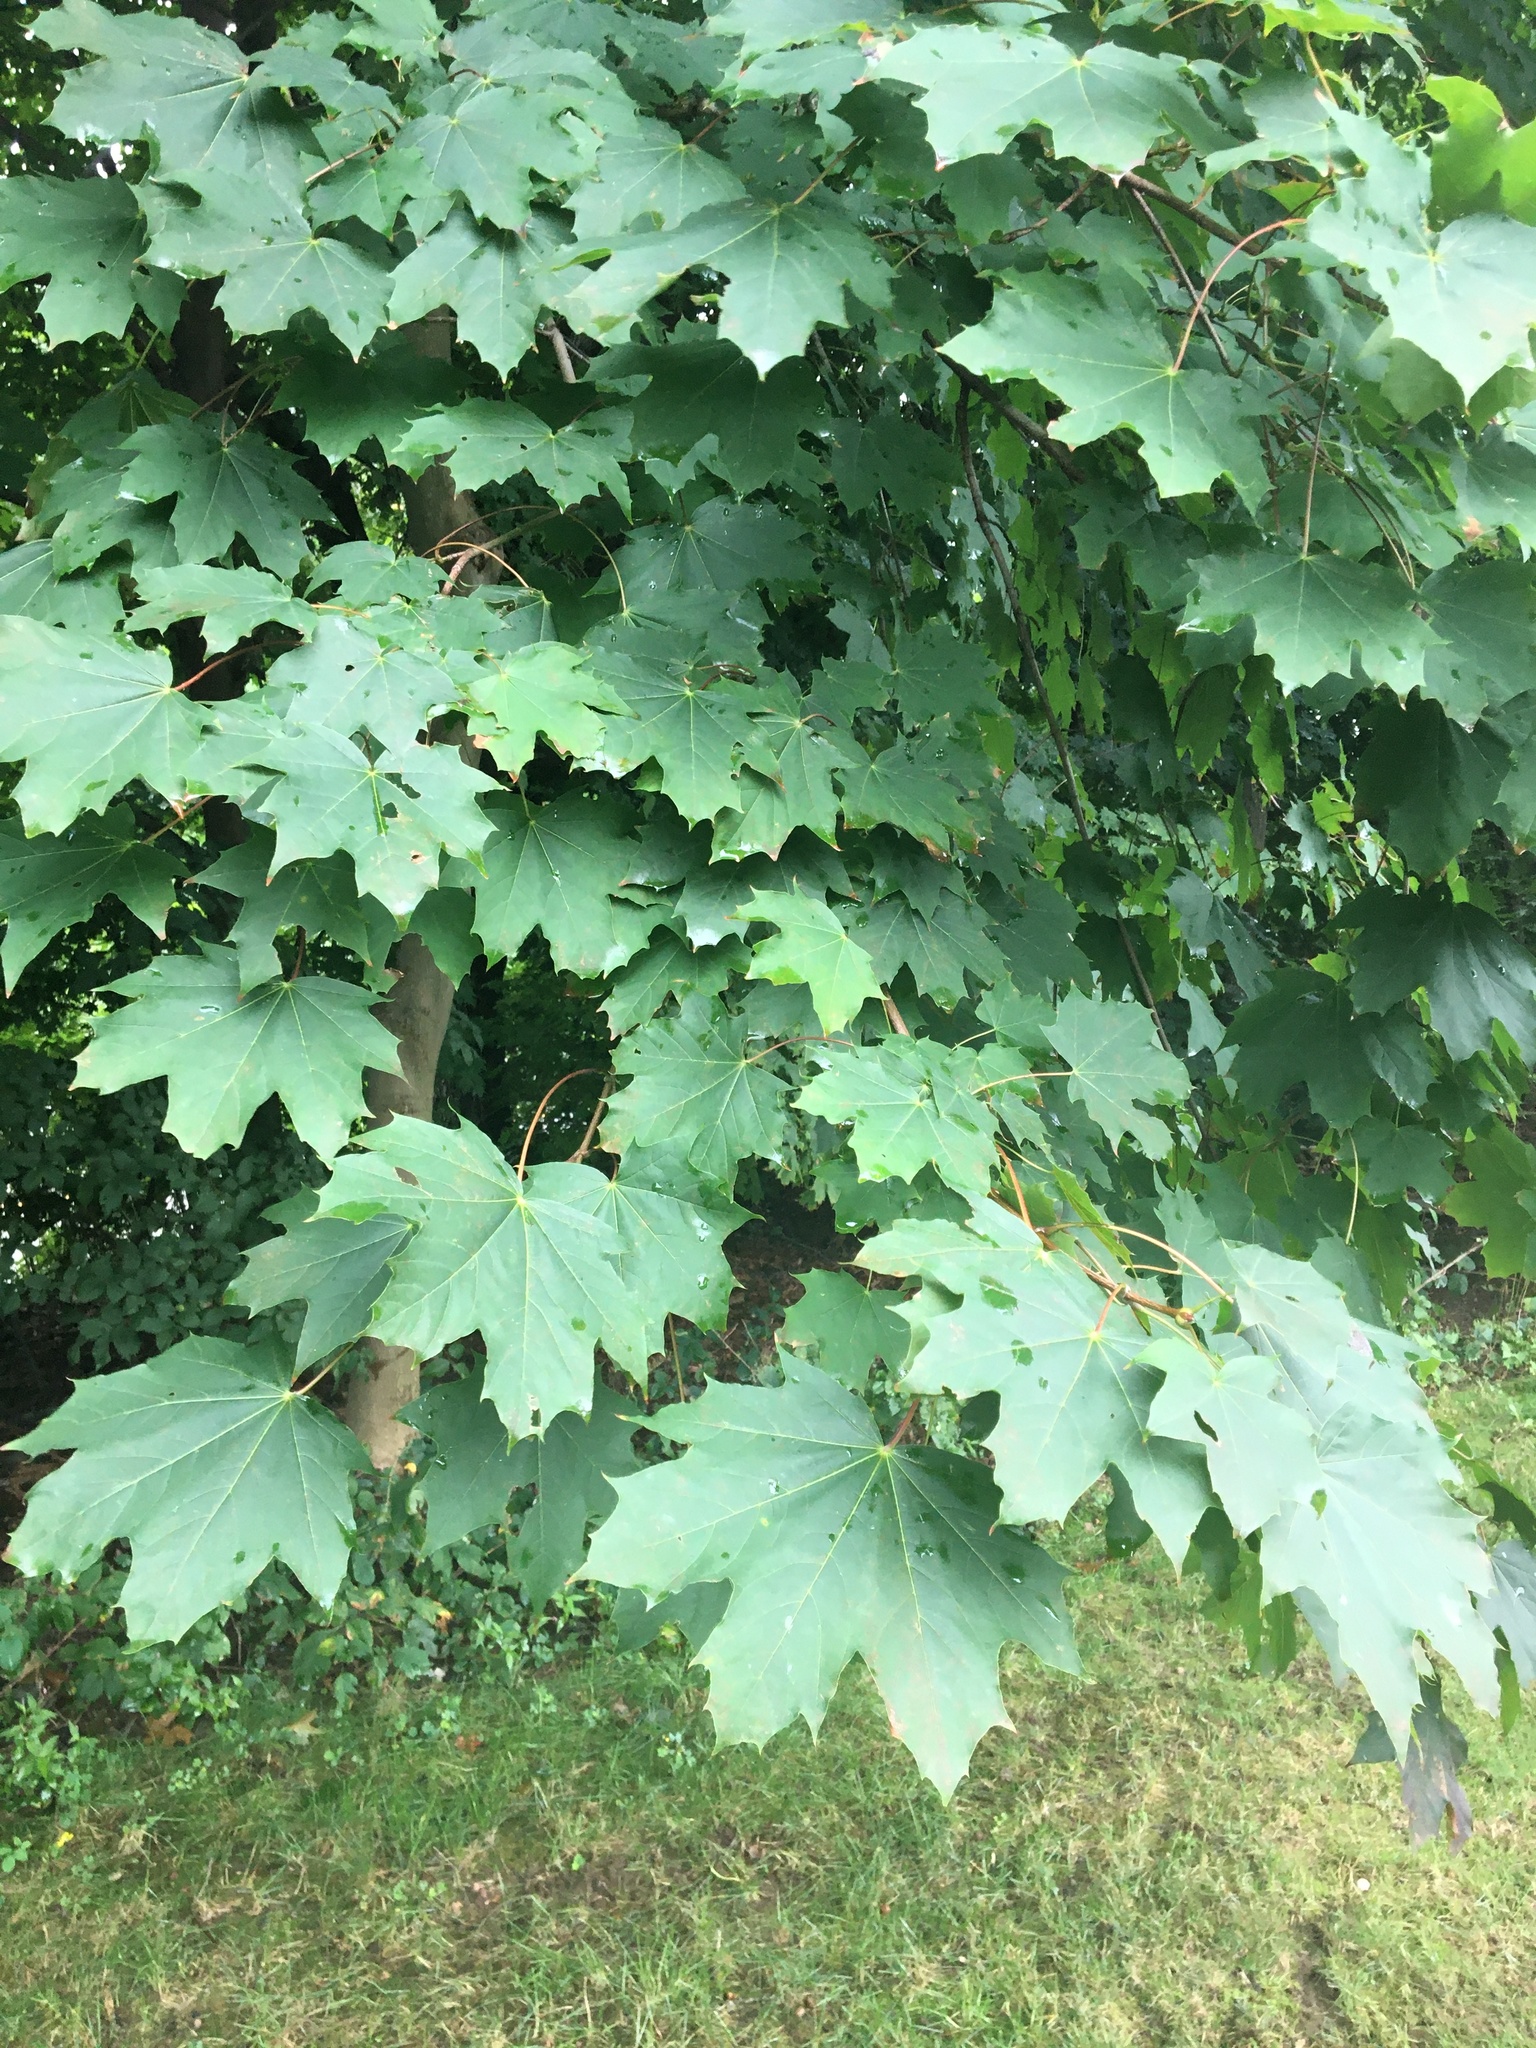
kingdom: Plantae
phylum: Tracheophyta
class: Magnoliopsida
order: Sapindales
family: Sapindaceae
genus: Acer
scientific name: Acer platanoides
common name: Norway maple
